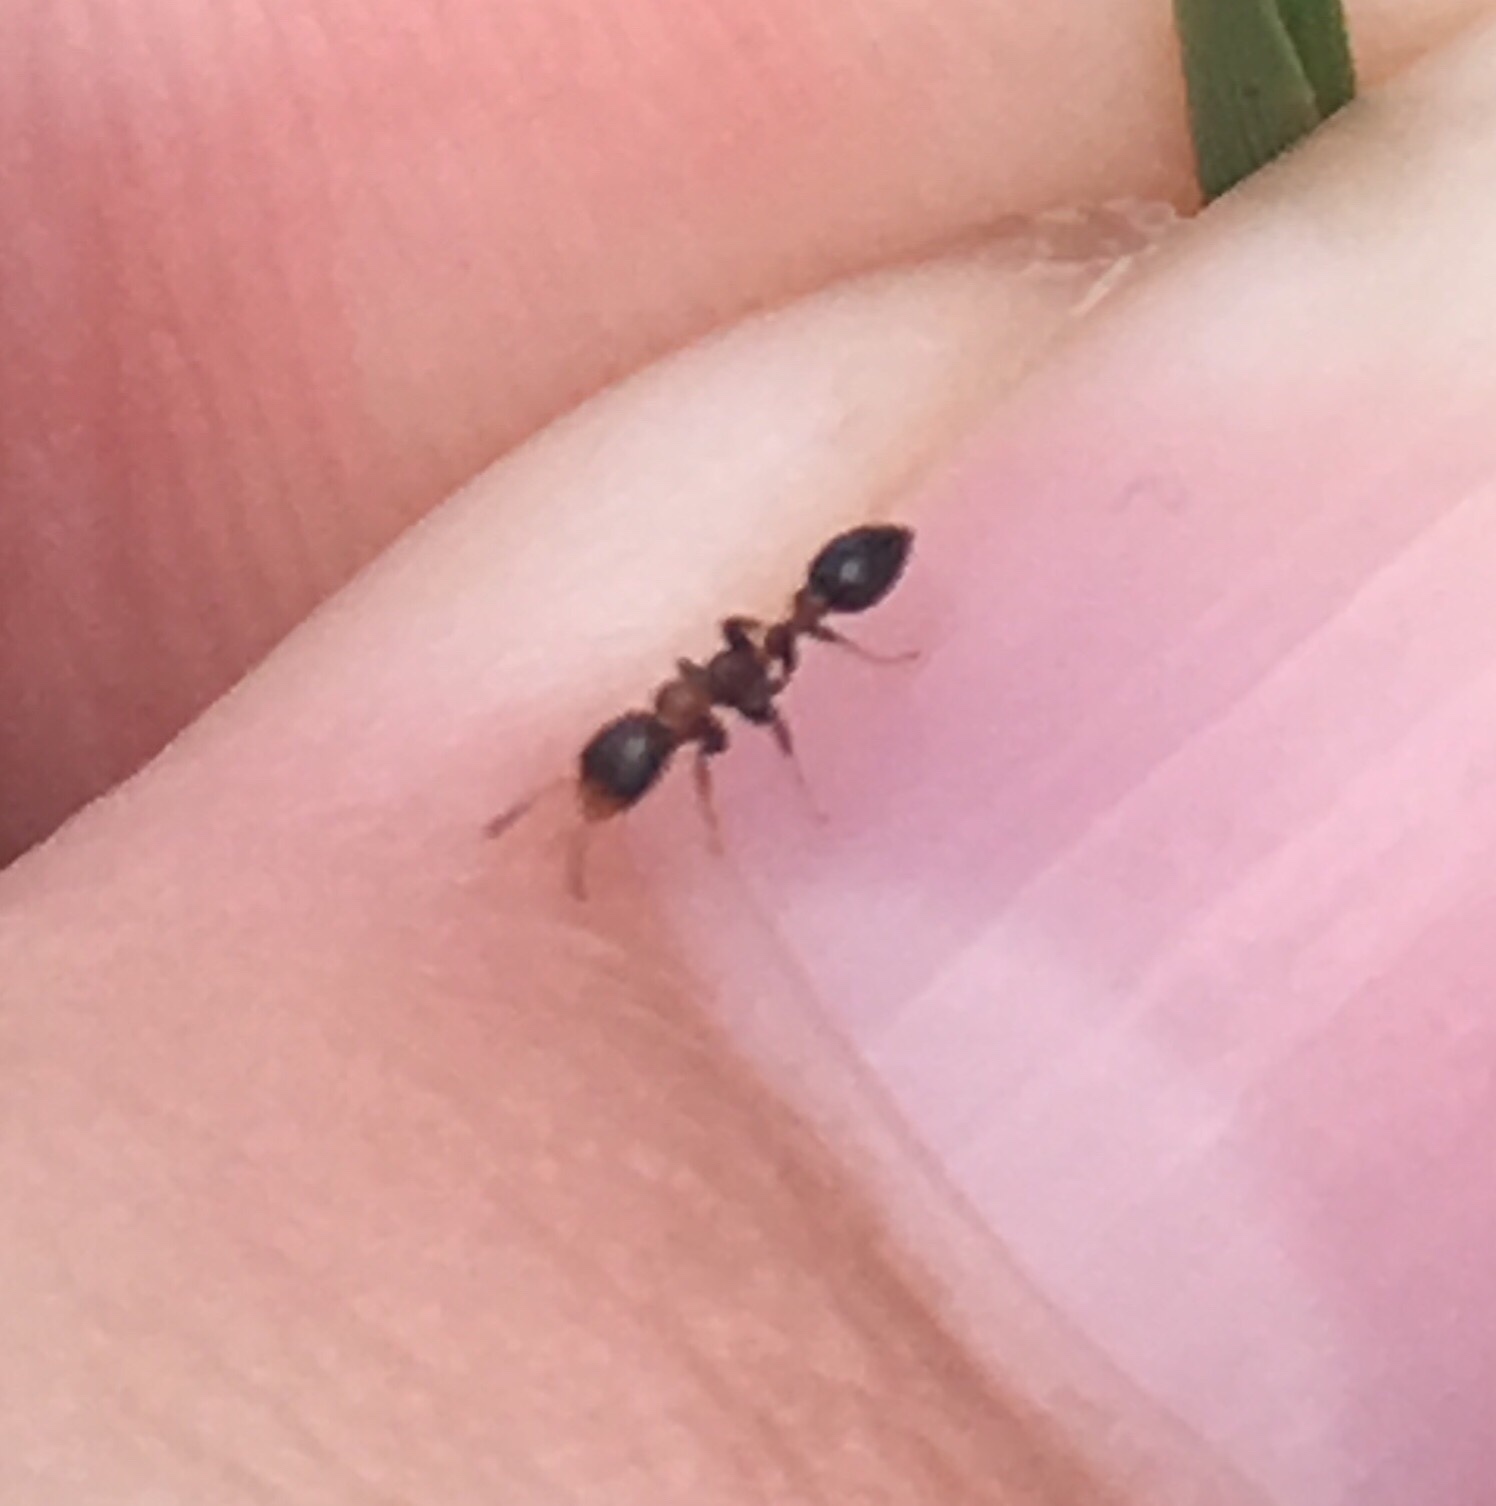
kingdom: Animalia
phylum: Arthropoda
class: Insecta
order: Hymenoptera
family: Formicidae
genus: Pseudomyrmex
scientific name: Pseudomyrmex ejectus
